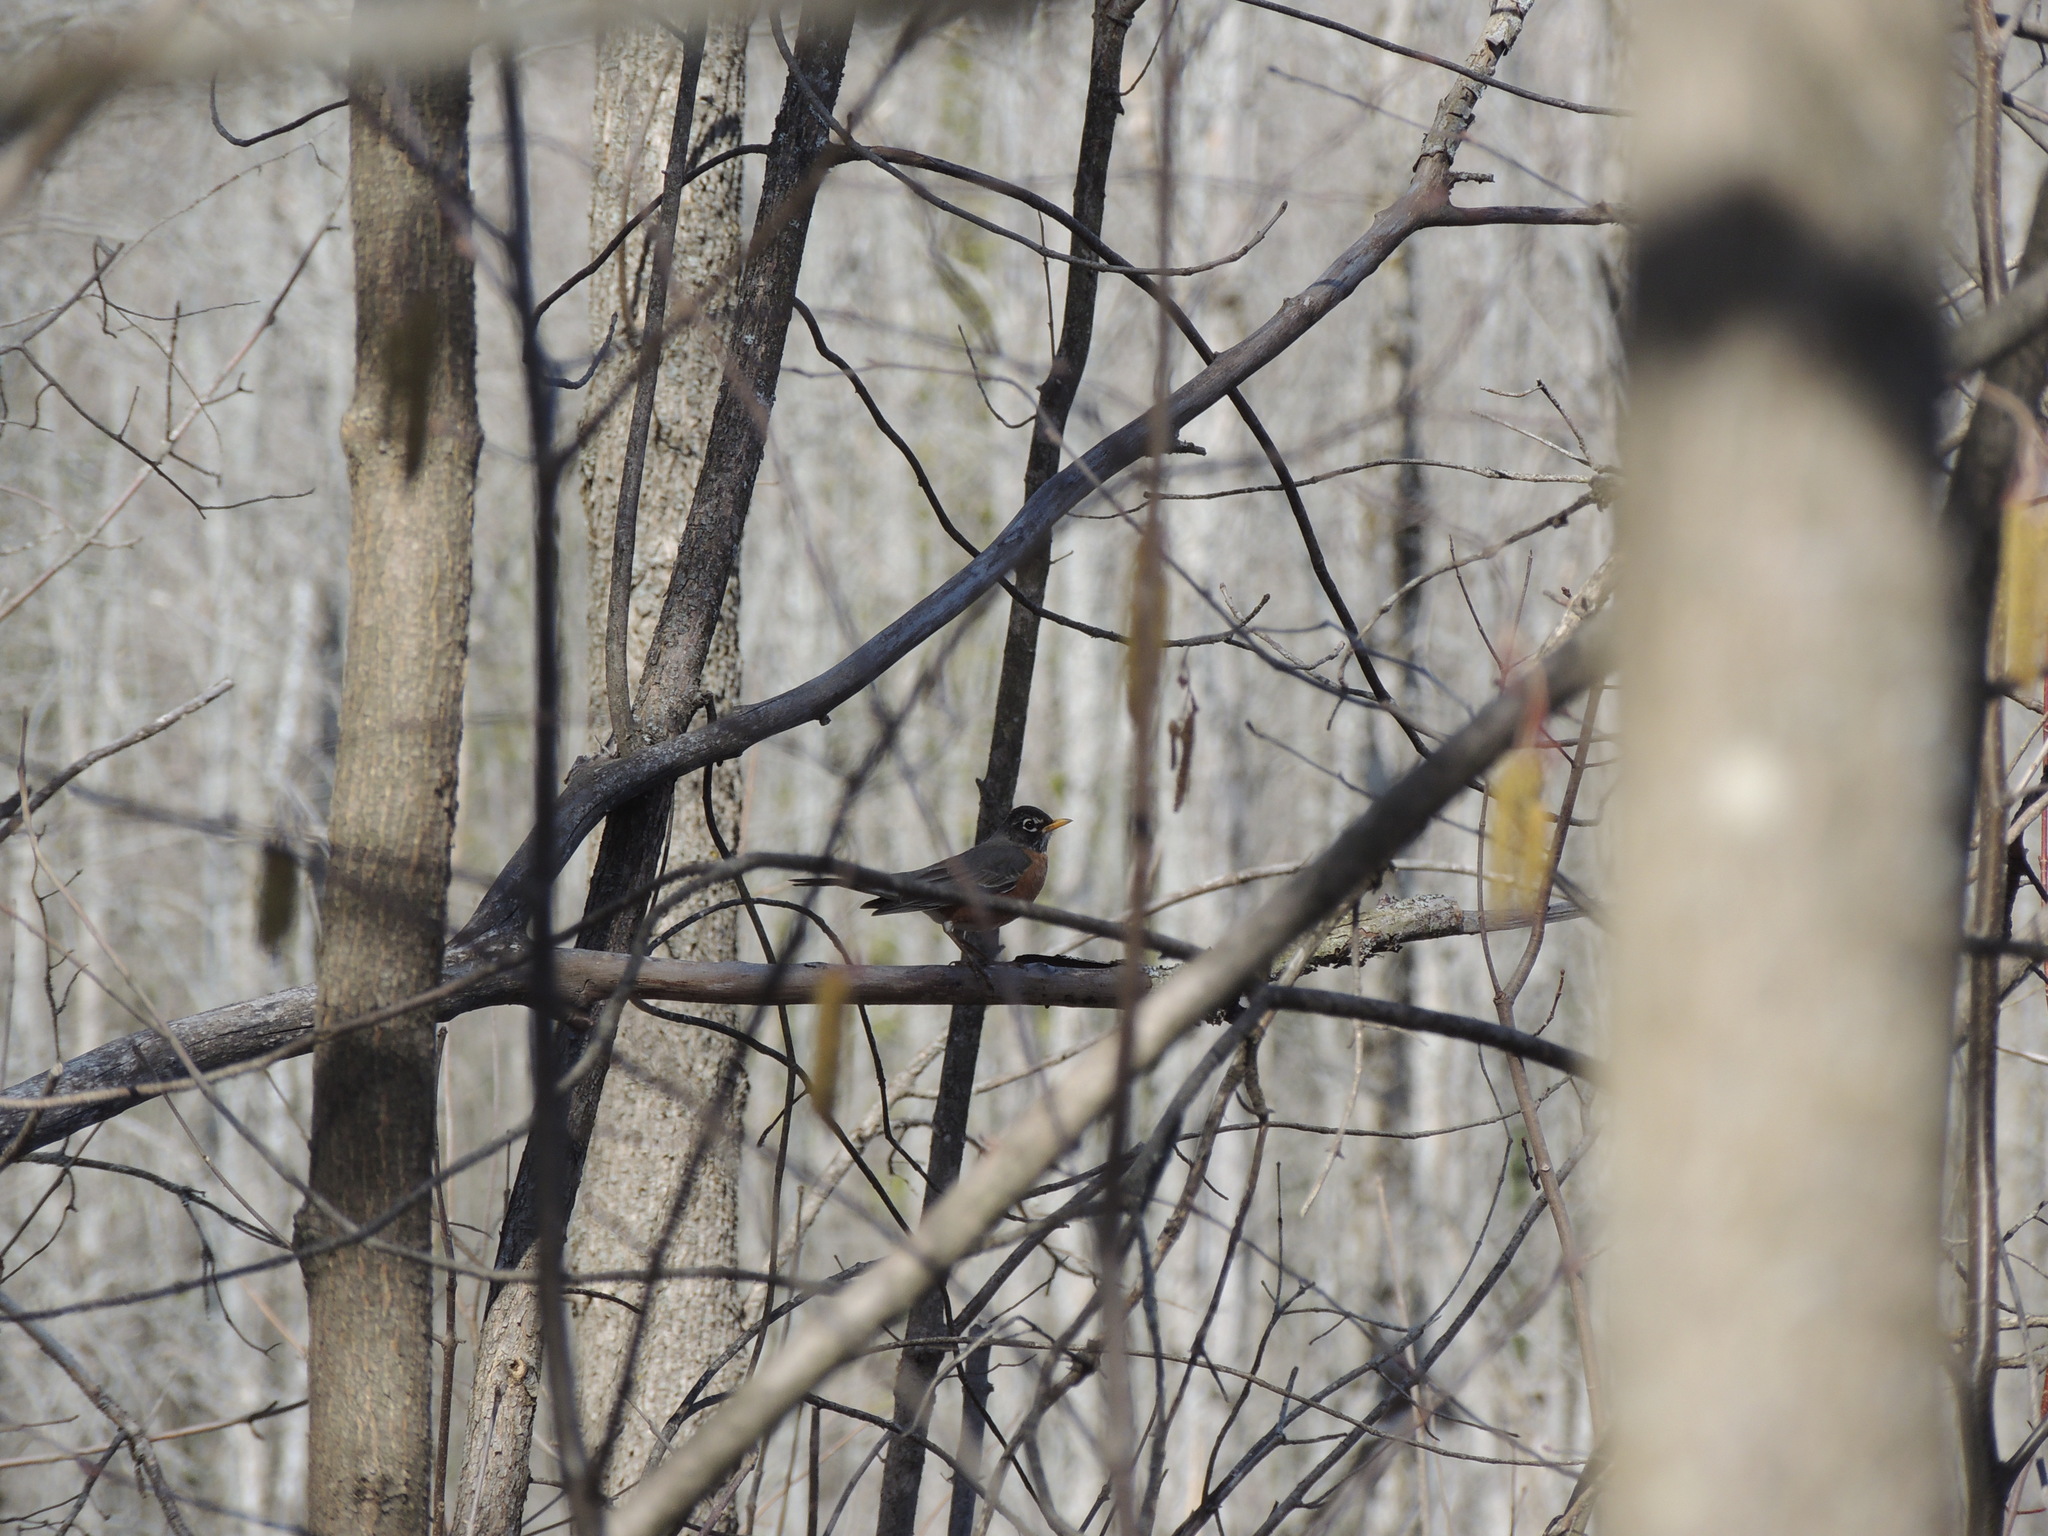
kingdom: Animalia
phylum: Chordata
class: Aves
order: Passeriformes
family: Turdidae
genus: Turdus
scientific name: Turdus migratorius
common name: American robin
